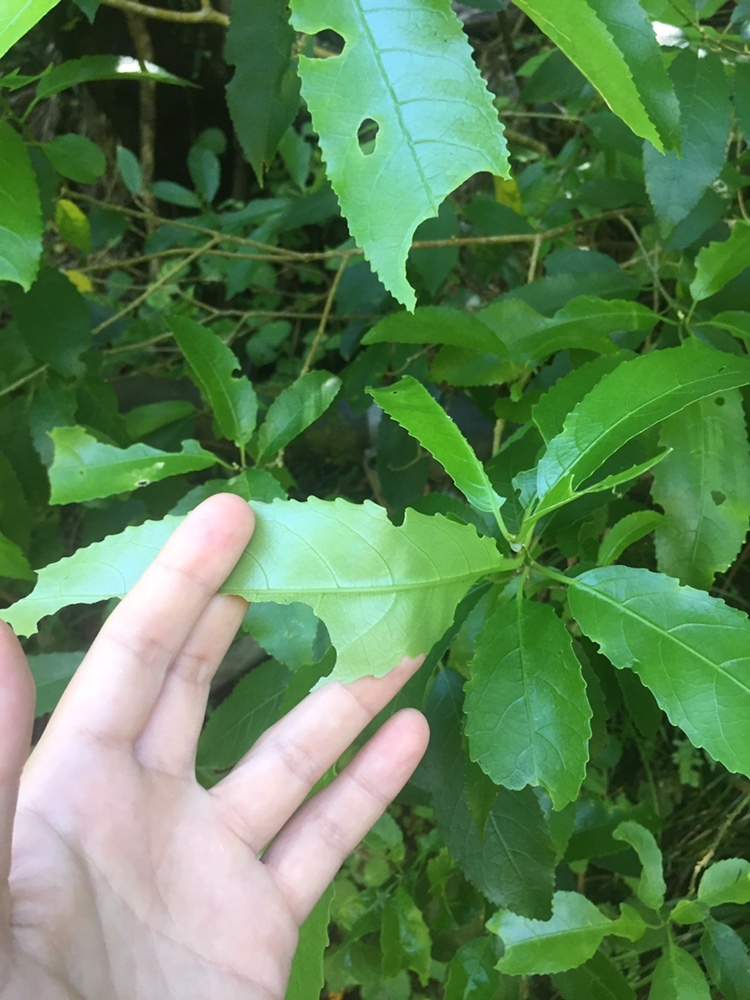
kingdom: Plantae
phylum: Tracheophyta
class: Magnoliopsida
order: Malpighiales
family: Violaceae
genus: Melicytus
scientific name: Melicytus ramiflorus
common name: Mahoe
